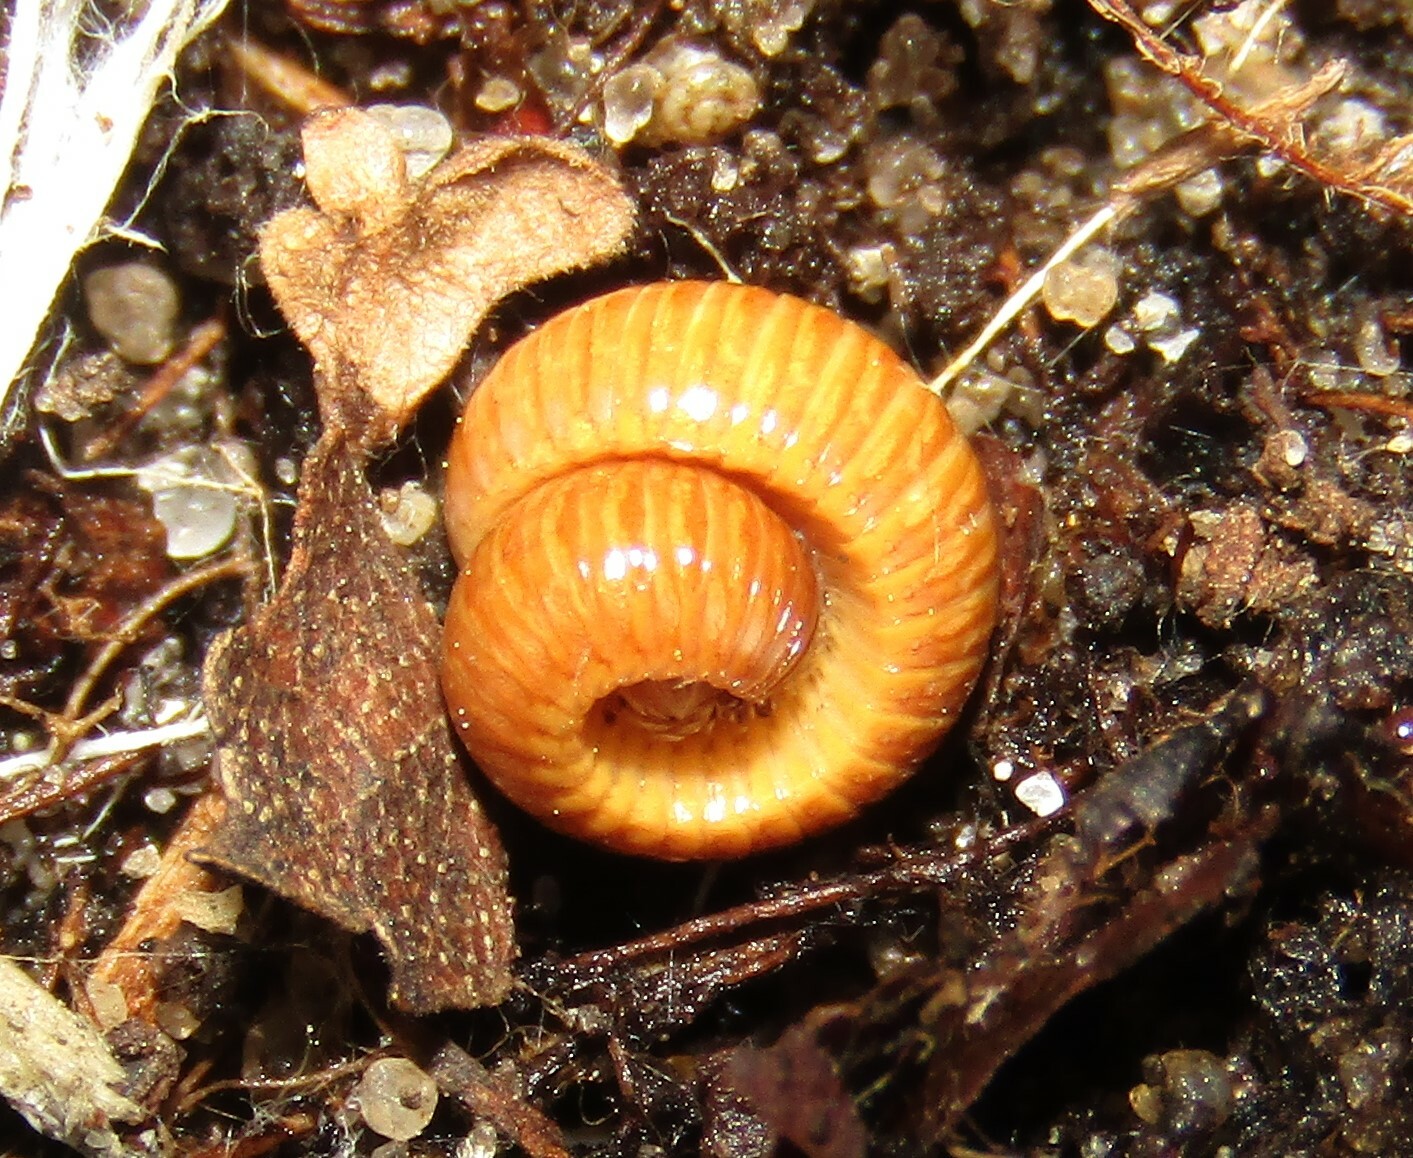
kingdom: Animalia
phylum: Arthropoda
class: Diplopoda
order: Polyzoniida
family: Polyzoniidae
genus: Polyzonium
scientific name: Polyzonium germanicum
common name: Boring millipede
